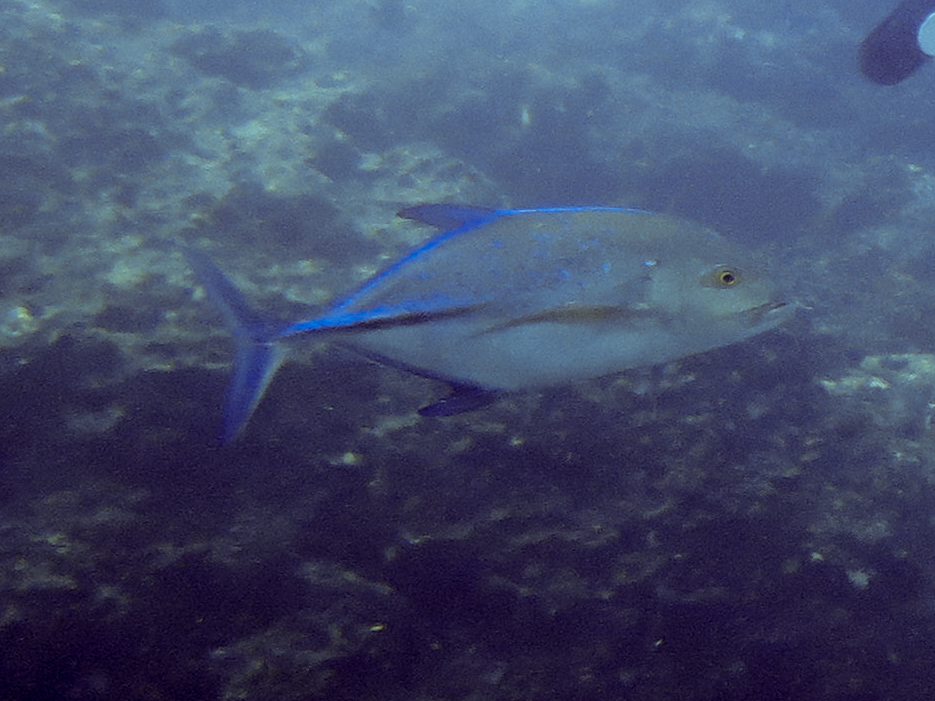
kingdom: Animalia
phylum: Chordata
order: Perciformes
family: Carangidae
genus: Caranx
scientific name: Caranx melampygus
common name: Bluefin trevally
